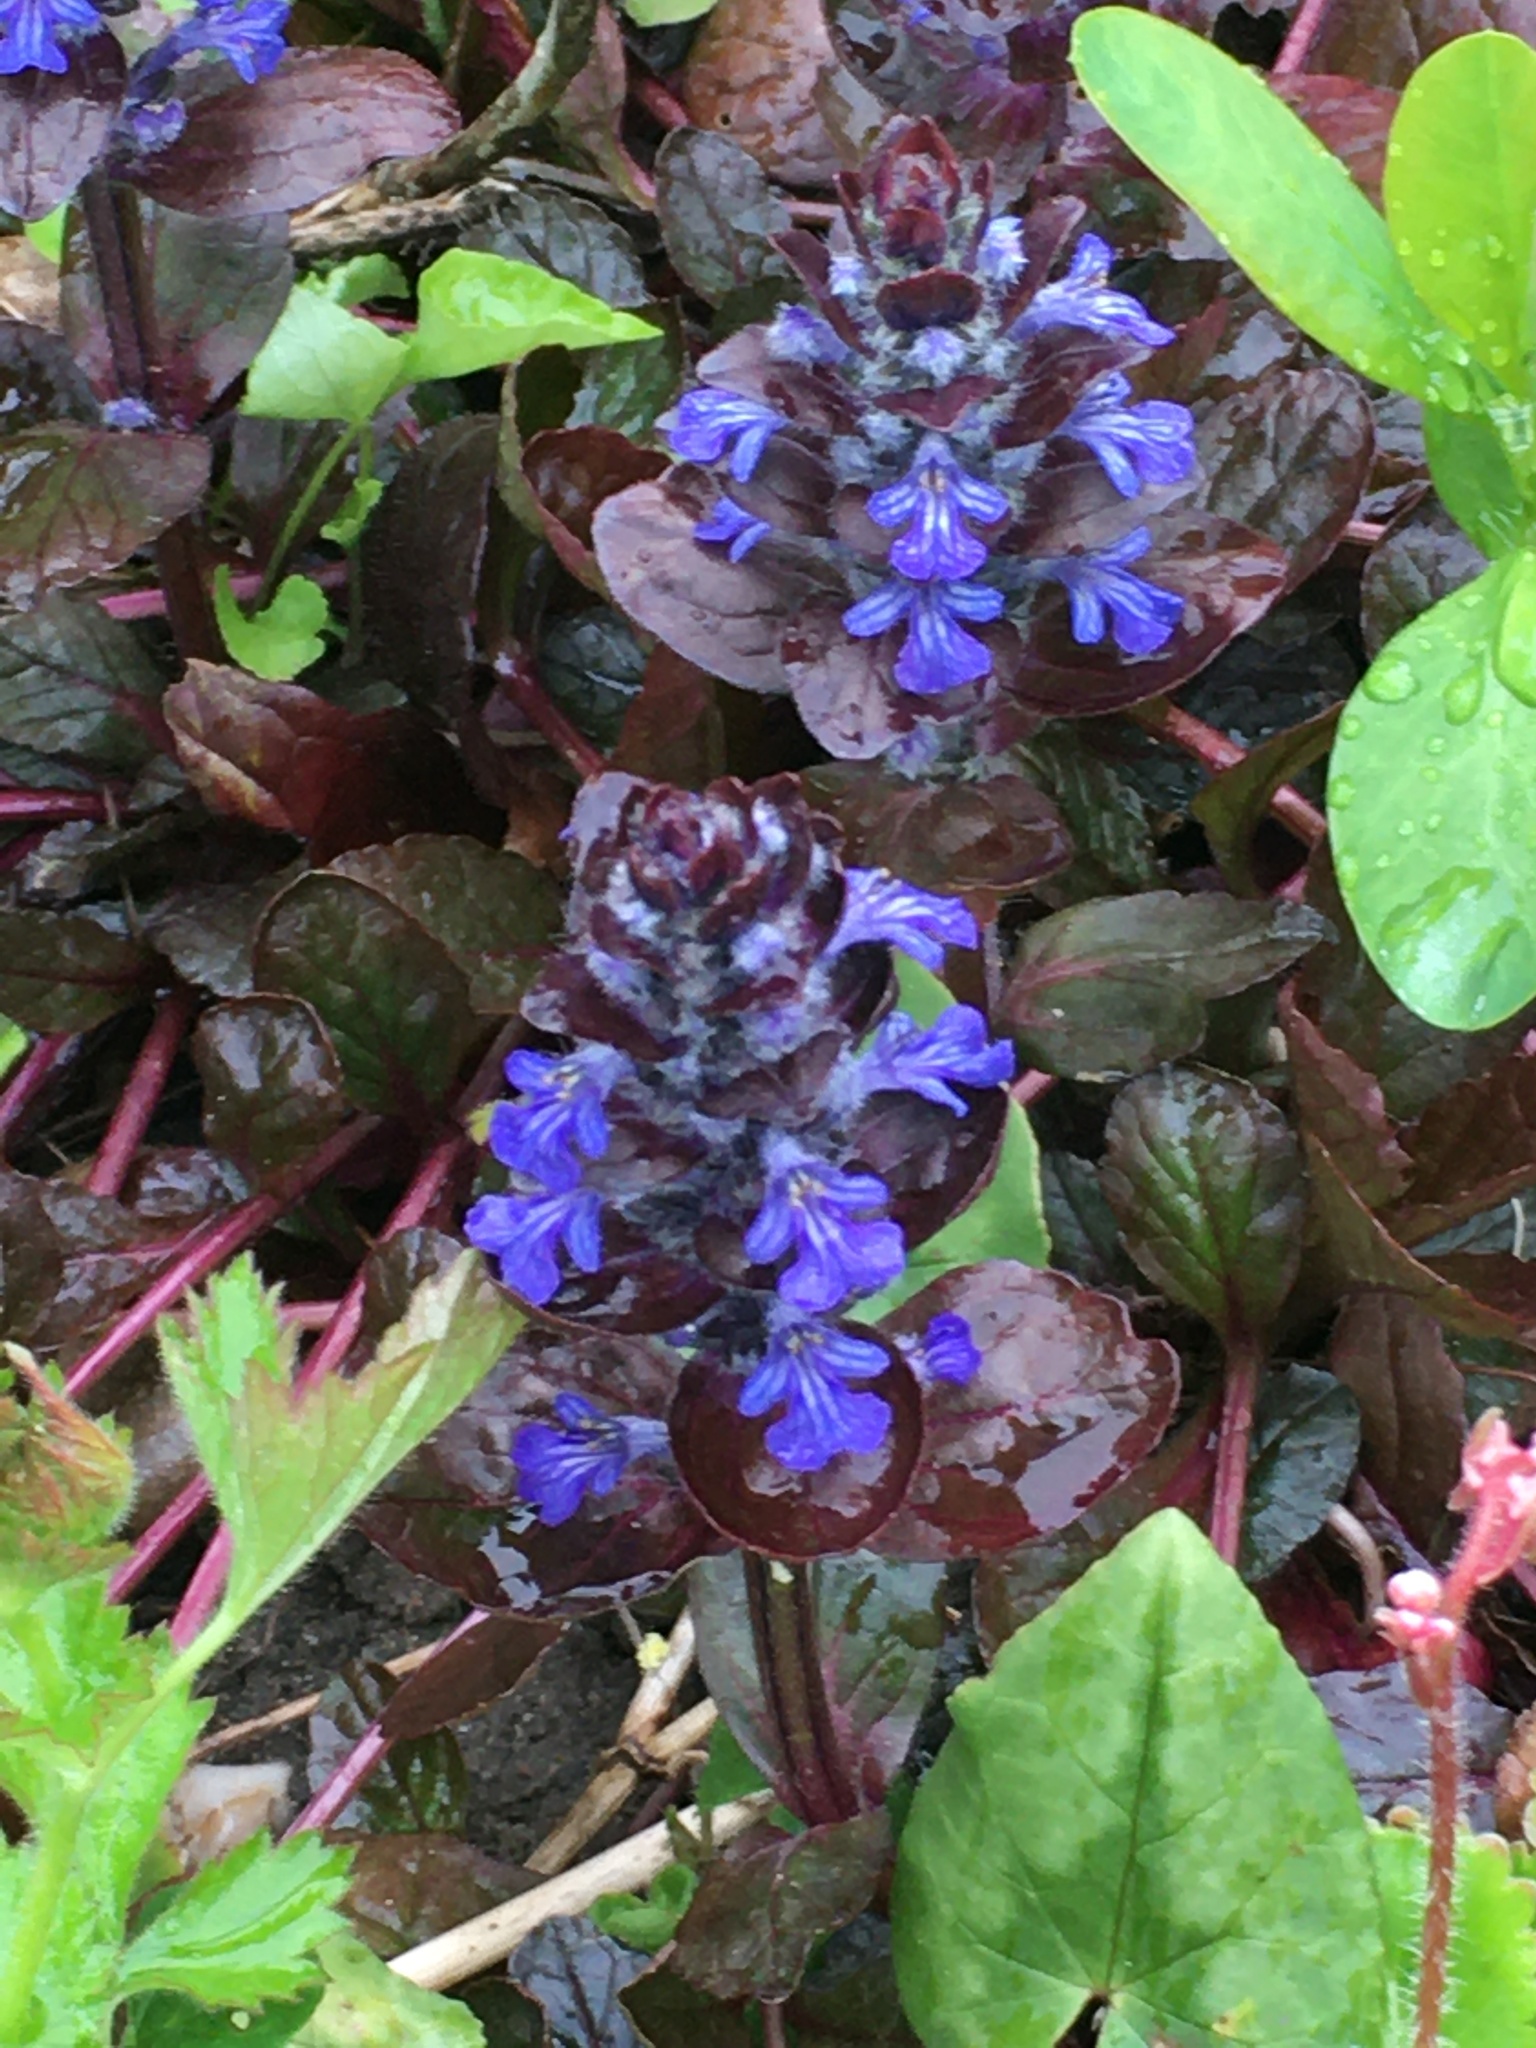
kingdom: Plantae
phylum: Tracheophyta
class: Magnoliopsida
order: Lamiales
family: Lamiaceae
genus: Ajuga
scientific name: Ajuga reptans
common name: Bugle
